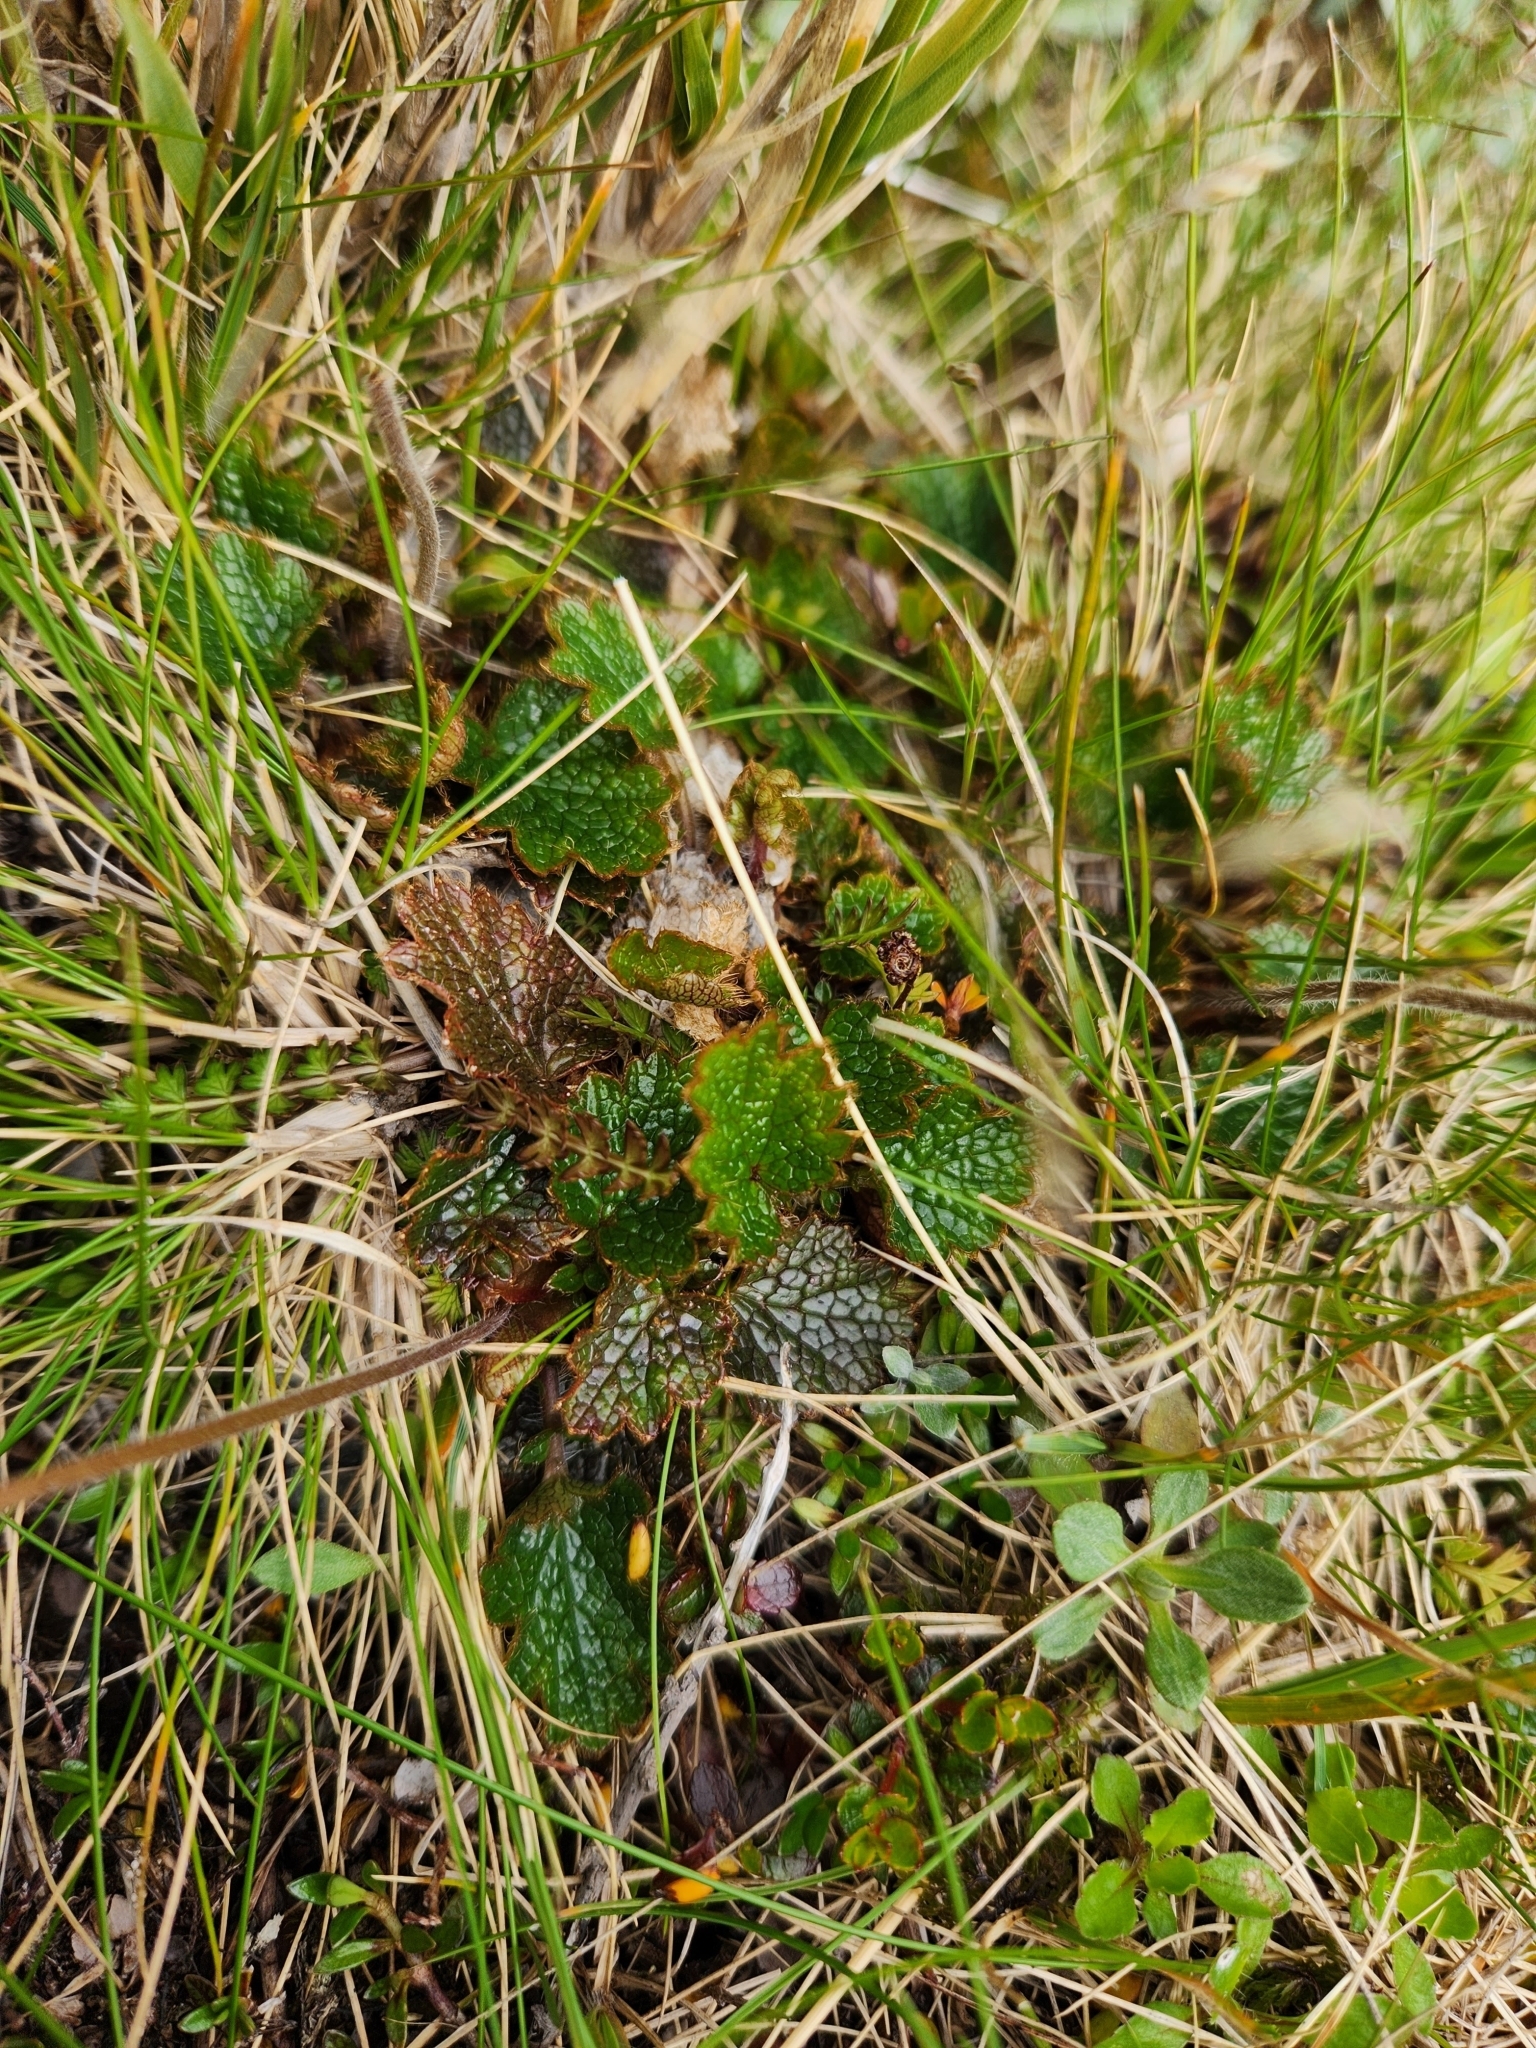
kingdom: Plantae
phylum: Tracheophyta
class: Magnoliopsida
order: Rosales
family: Rosaceae
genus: Geum
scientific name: Geum uniflorum
